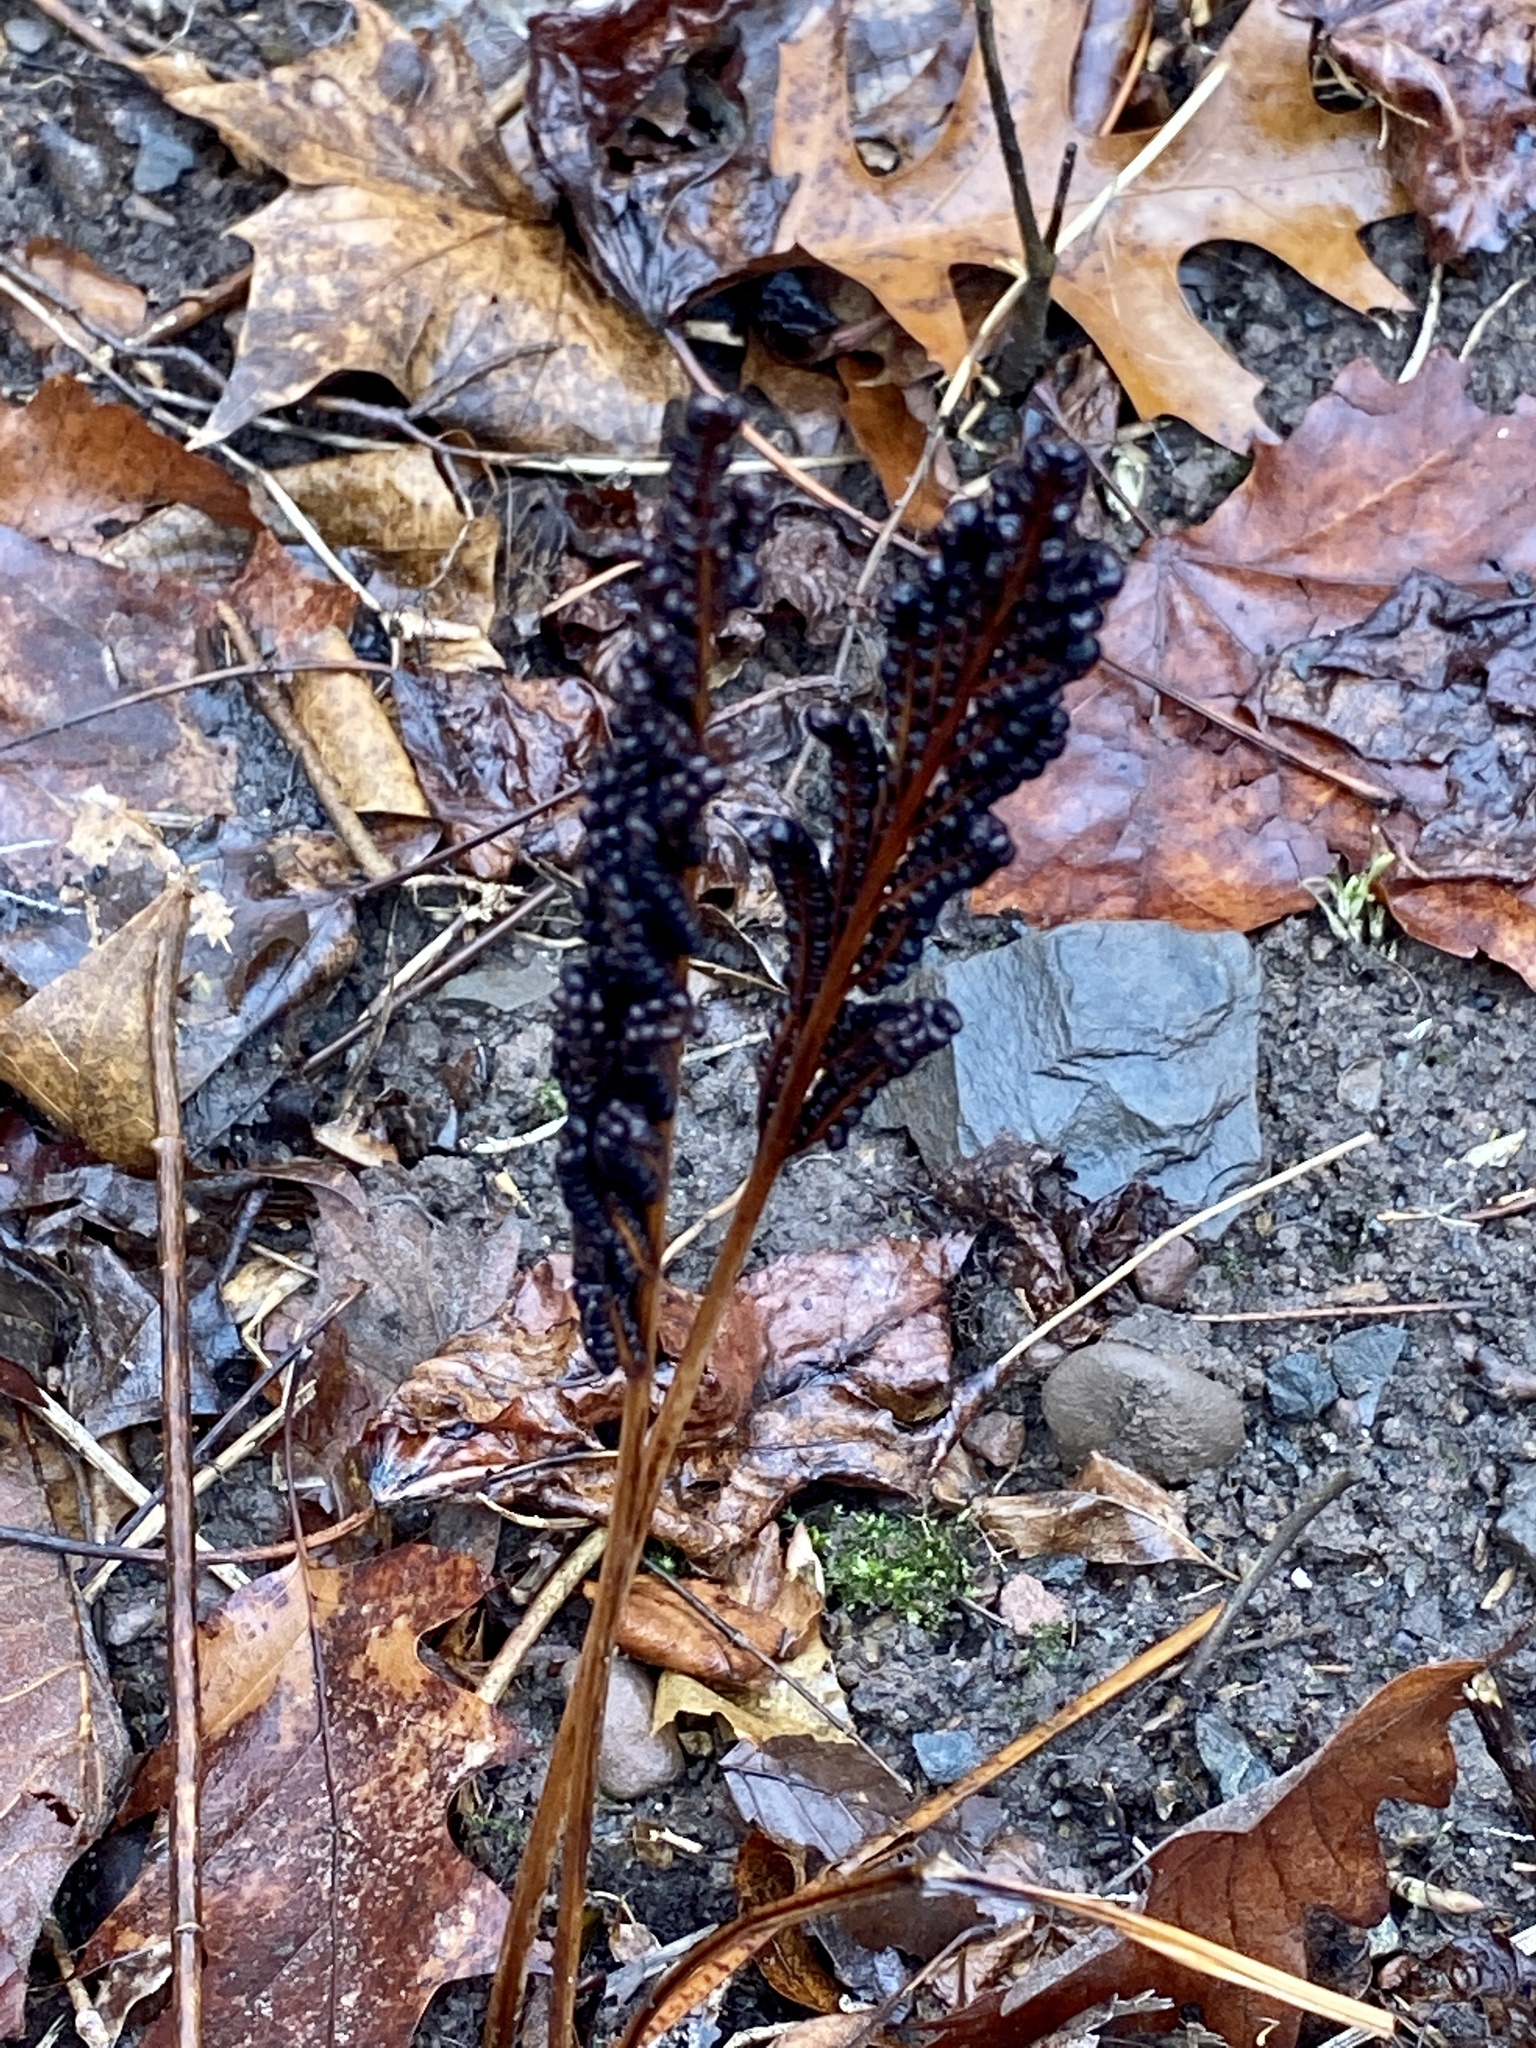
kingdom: Plantae
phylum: Tracheophyta
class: Polypodiopsida
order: Polypodiales
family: Onocleaceae
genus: Onoclea
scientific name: Onoclea sensibilis
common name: Sensitive fern
